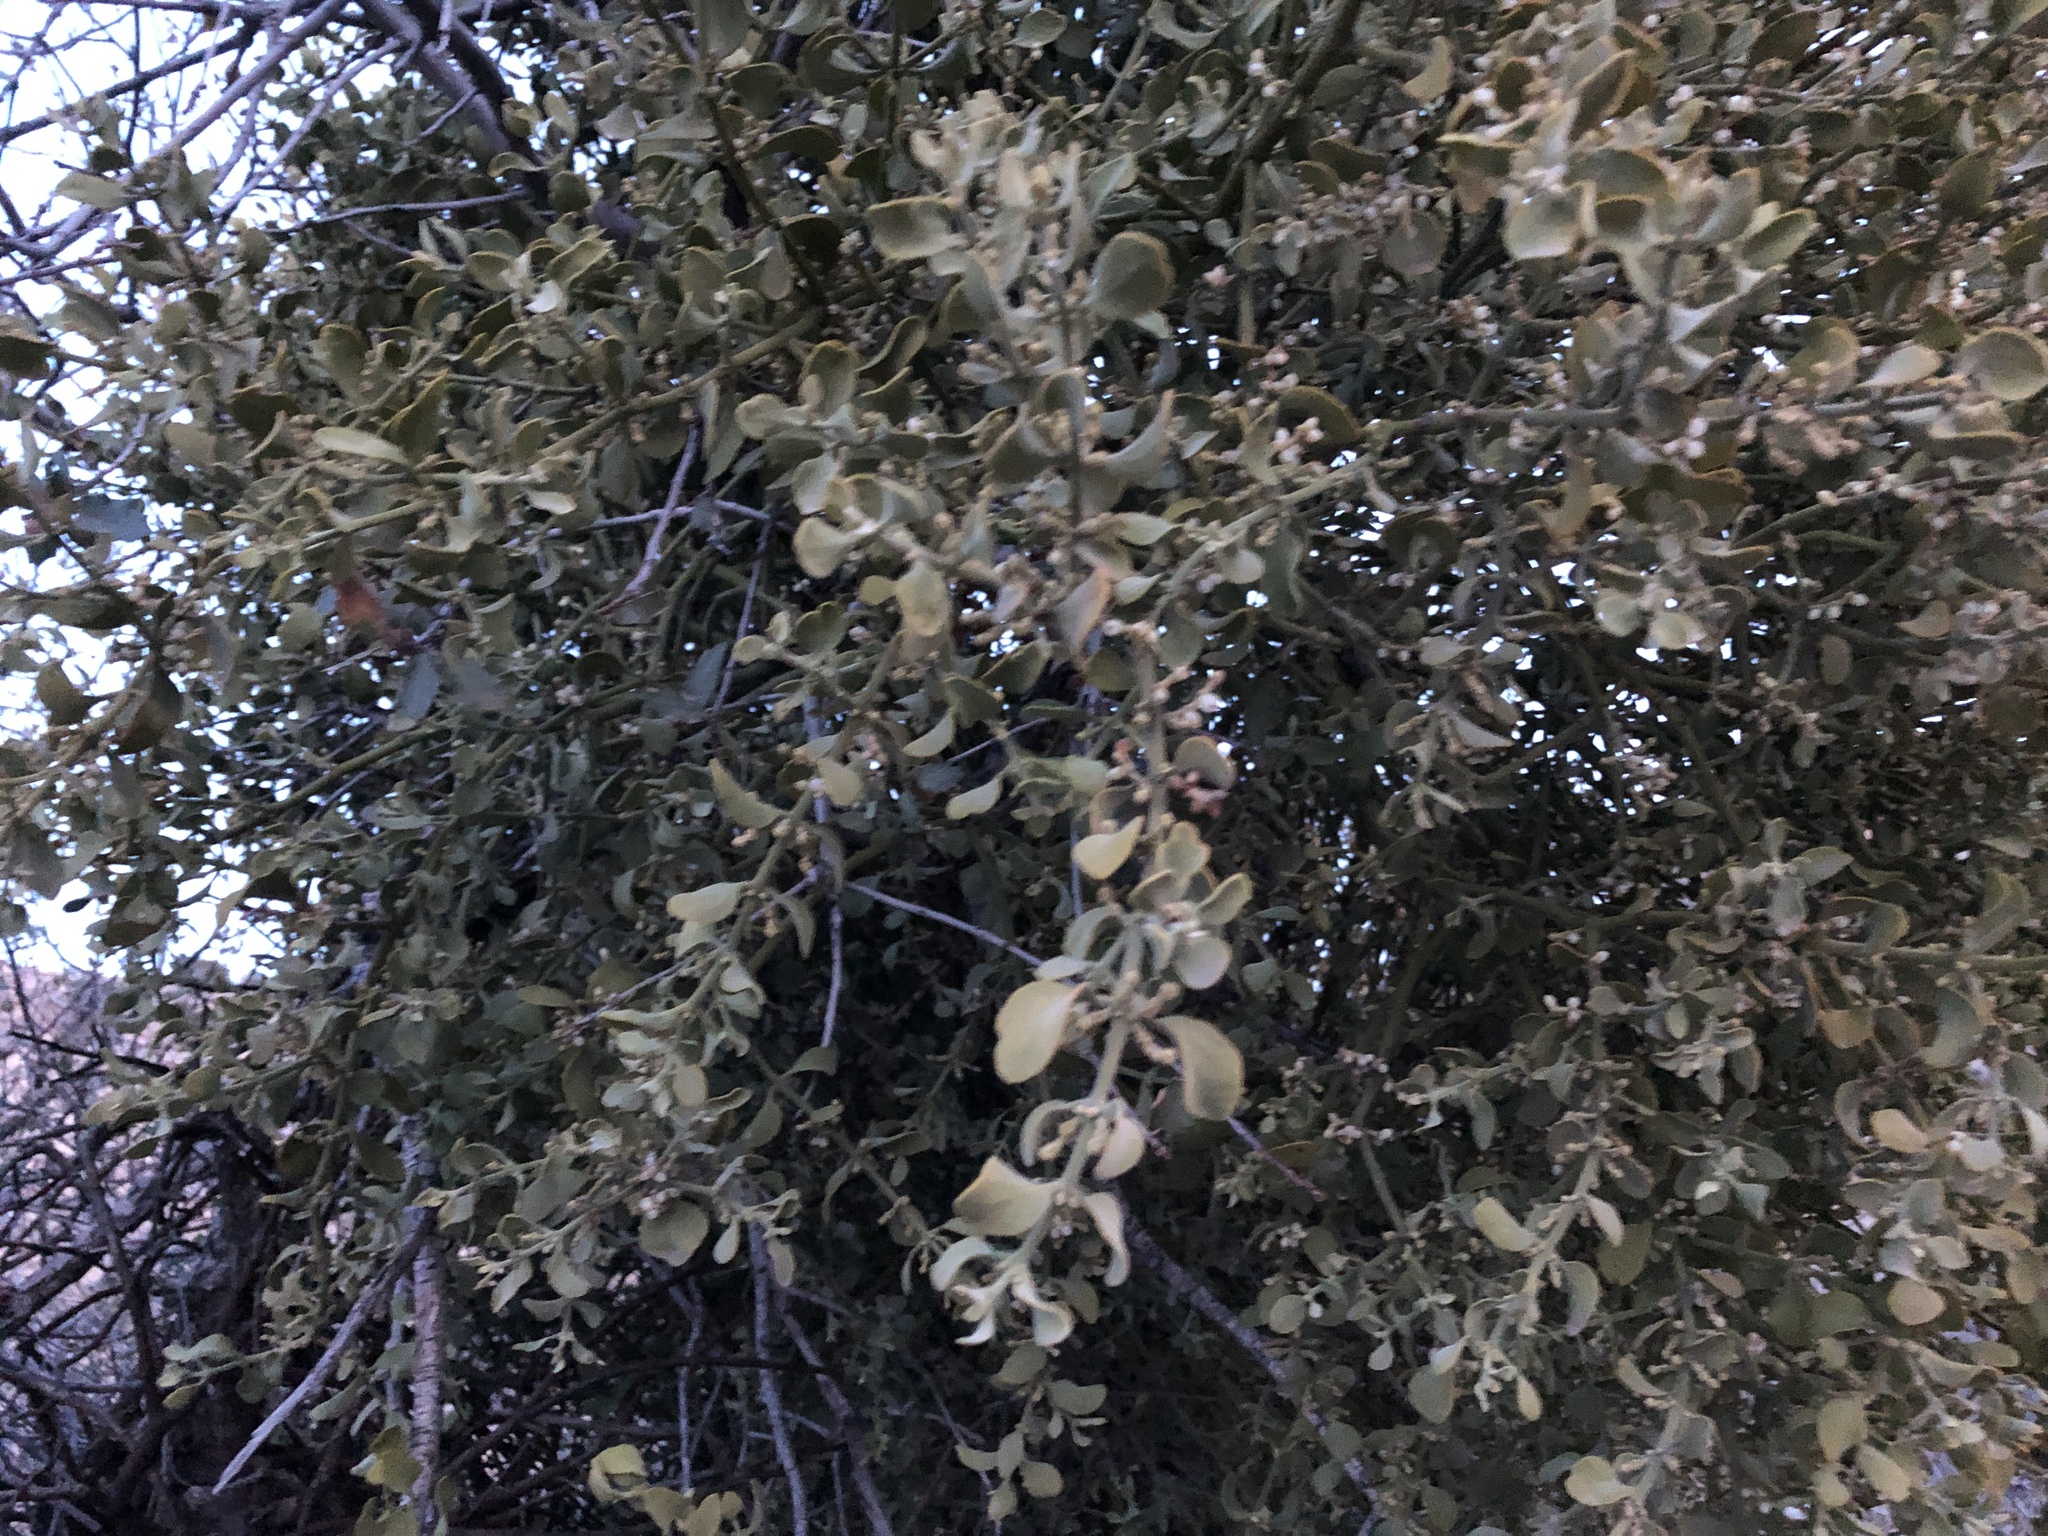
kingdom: Plantae
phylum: Tracheophyta
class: Magnoliopsida
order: Santalales
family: Viscaceae
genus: Phoradendron
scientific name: Phoradendron coryae
